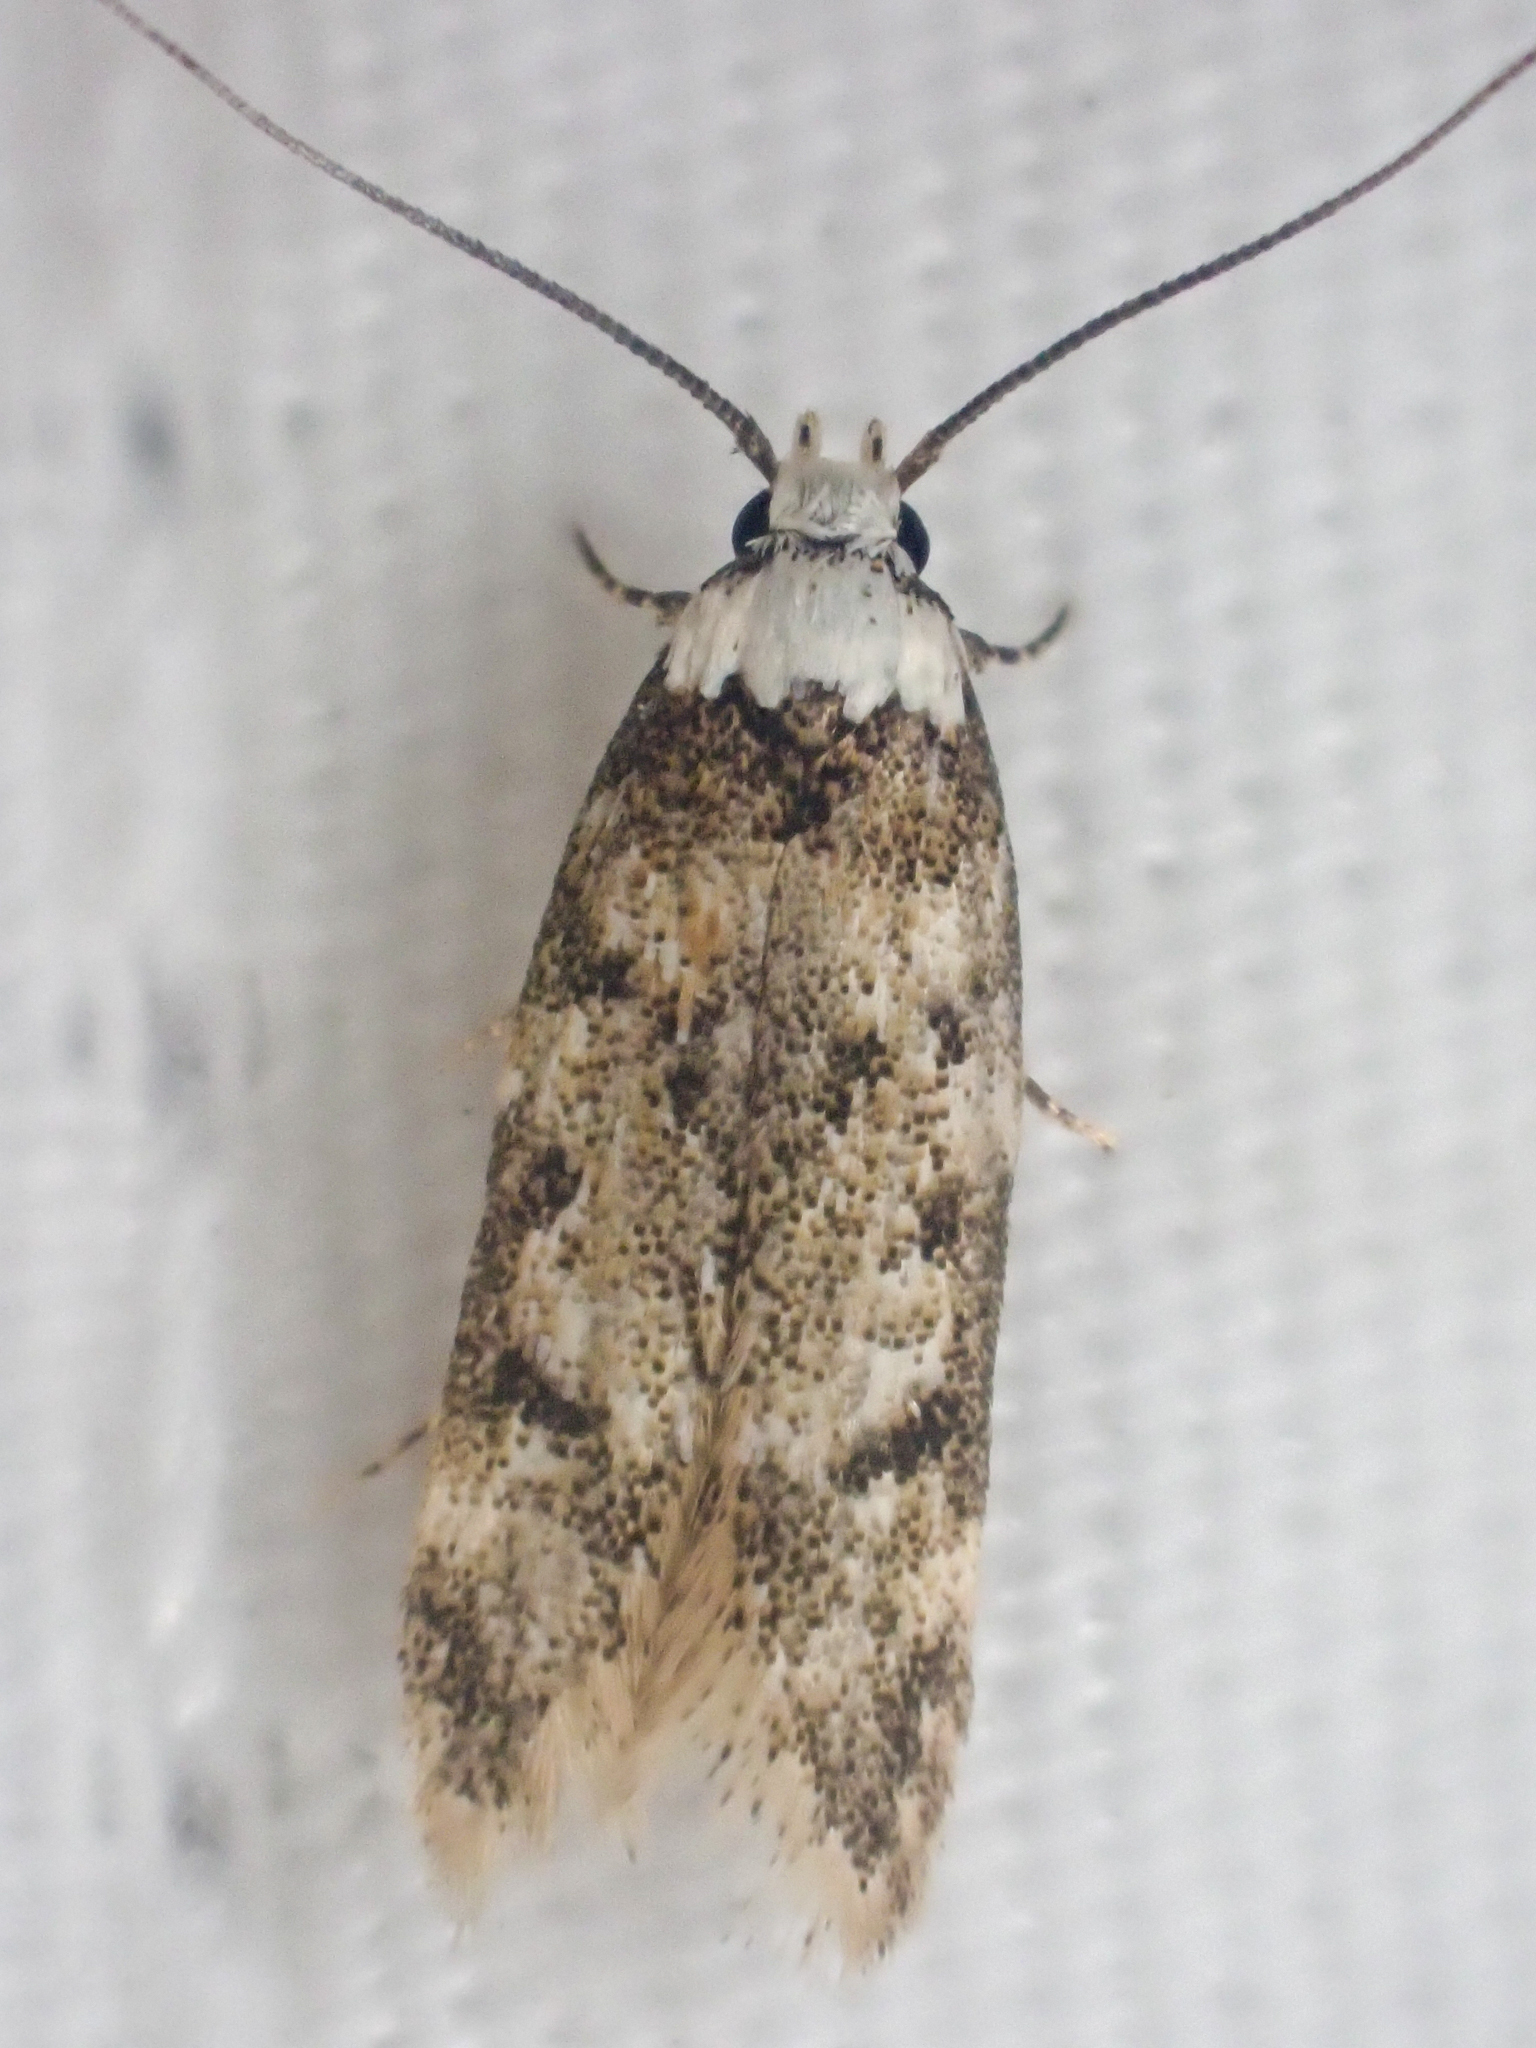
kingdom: Animalia
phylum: Arthropoda
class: Insecta
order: Lepidoptera
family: Oecophoridae
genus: Endrosis
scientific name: Endrosis sarcitrella
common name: White-shouldered house moth
